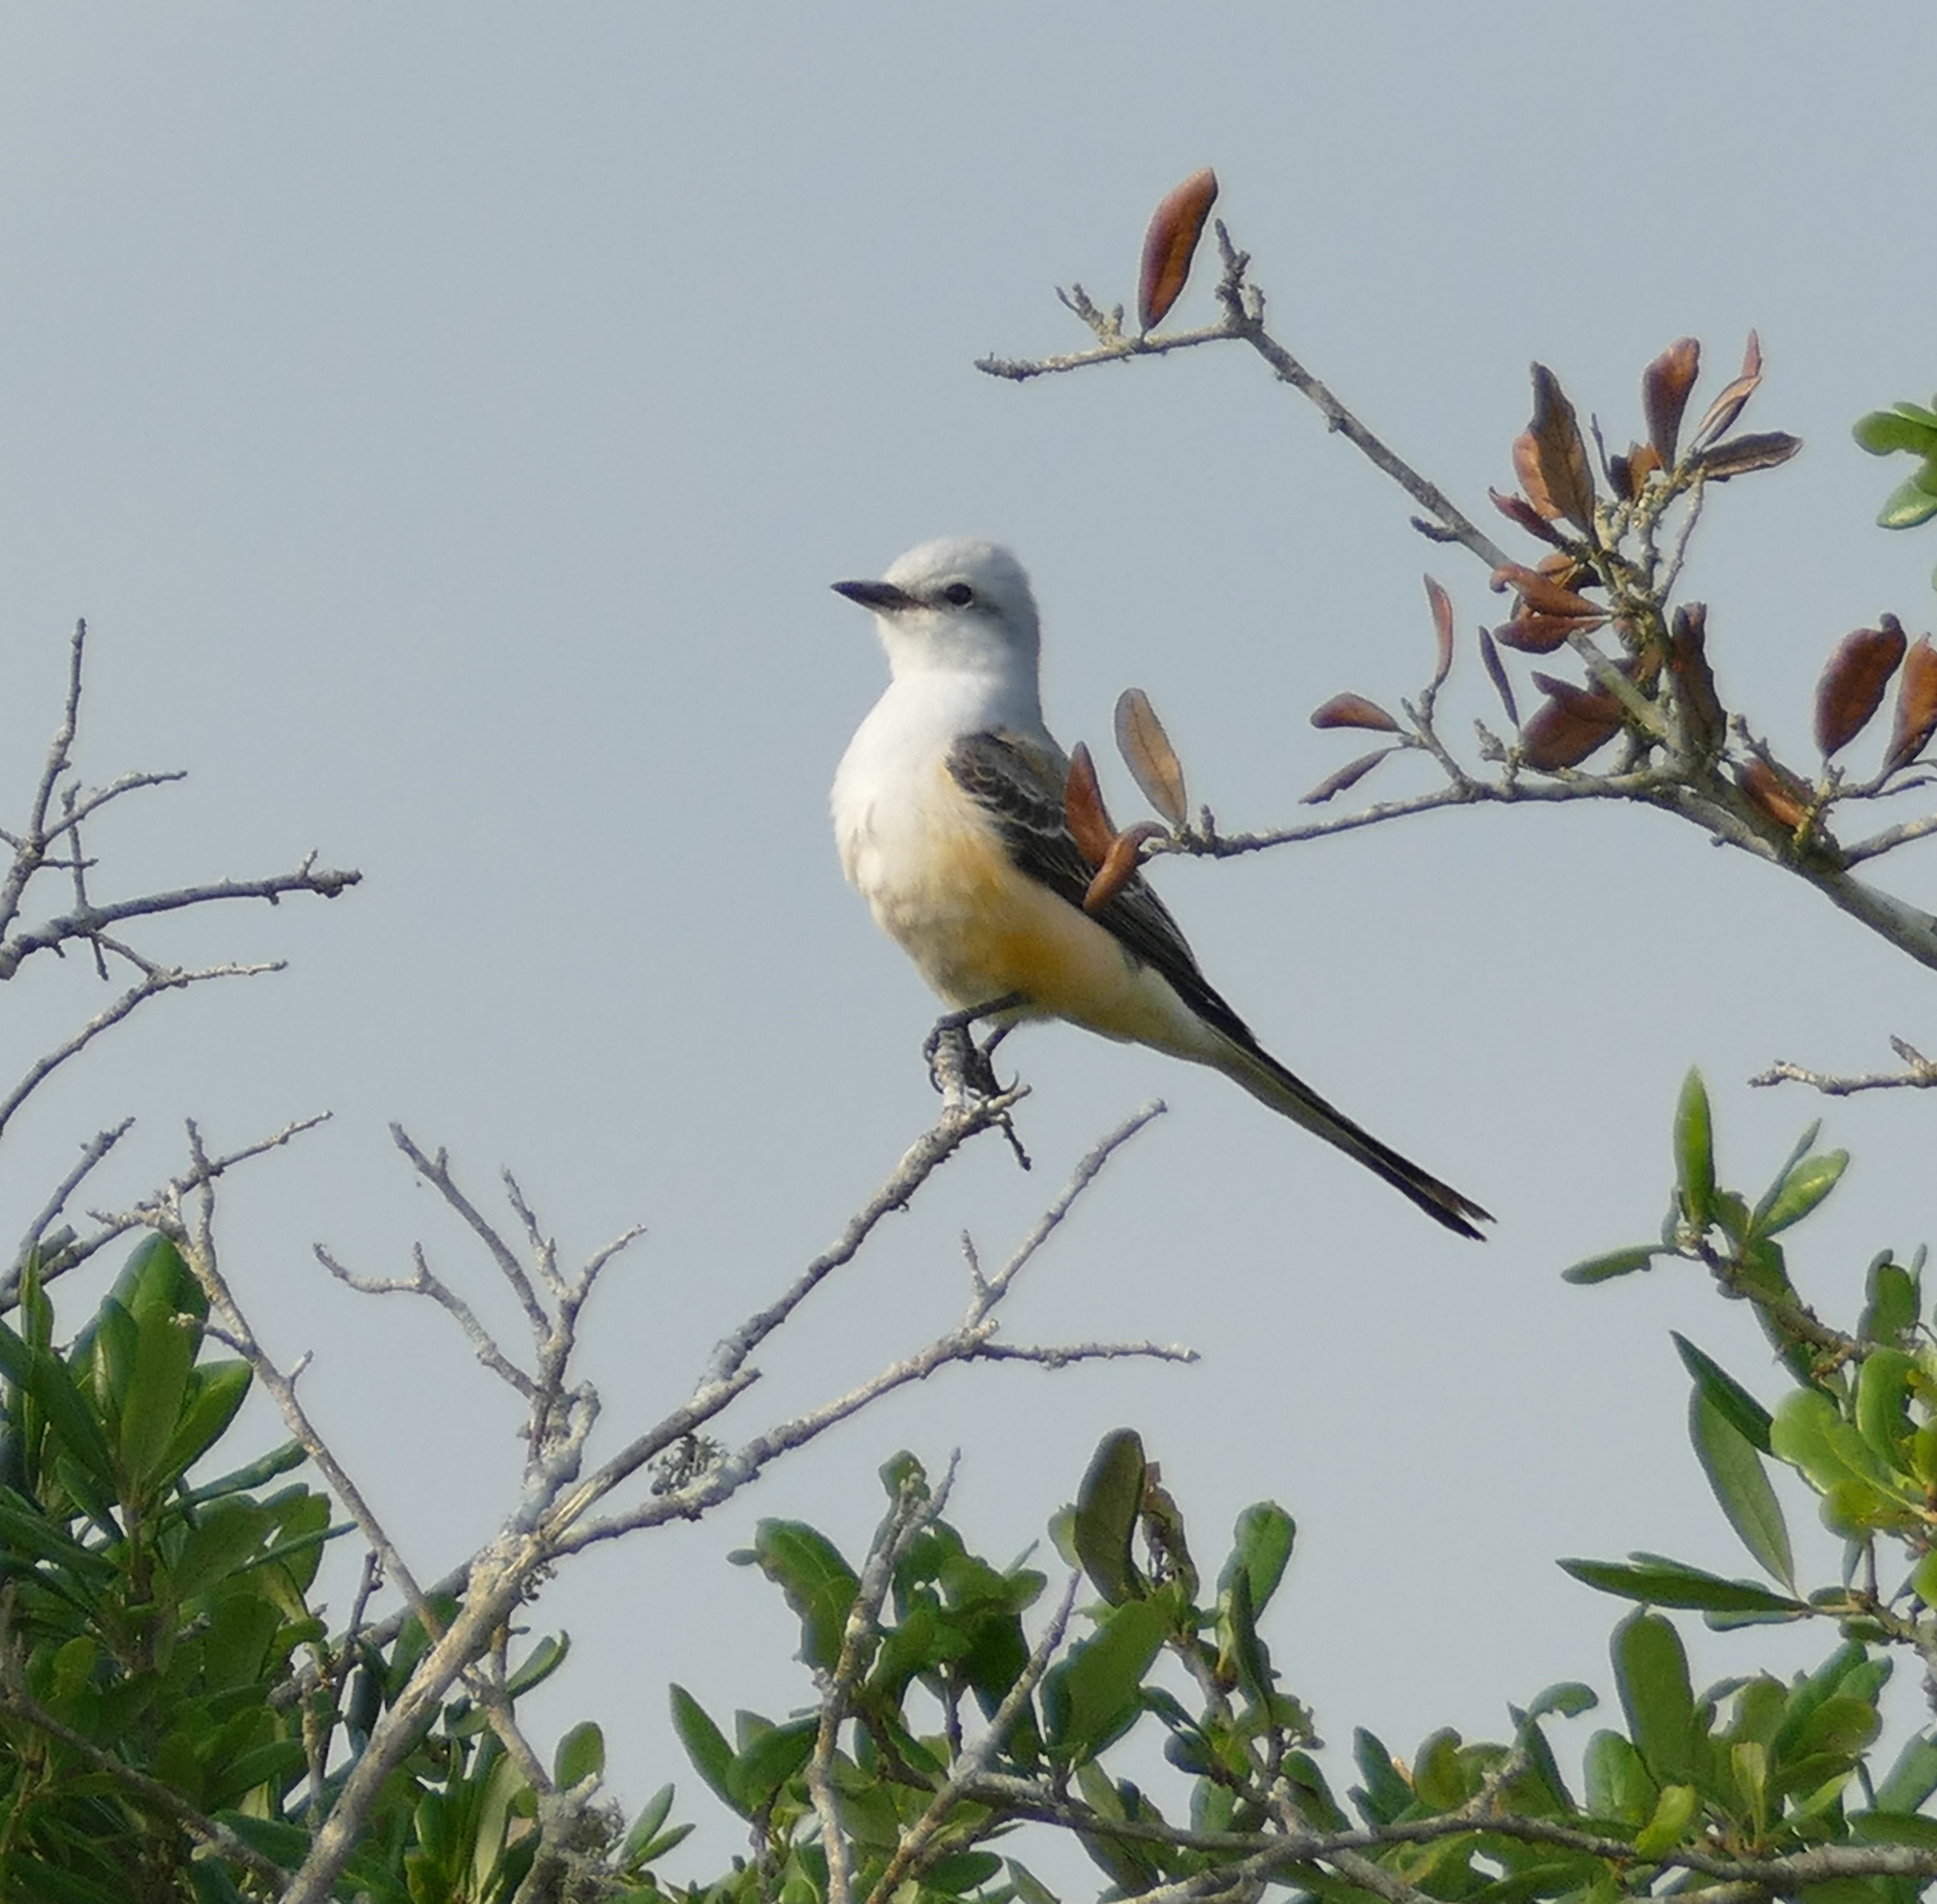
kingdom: Animalia
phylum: Chordata
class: Aves
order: Passeriformes
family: Tyrannidae
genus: Tyrannus
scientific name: Tyrannus forficatus
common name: Scissor-tailed flycatcher
